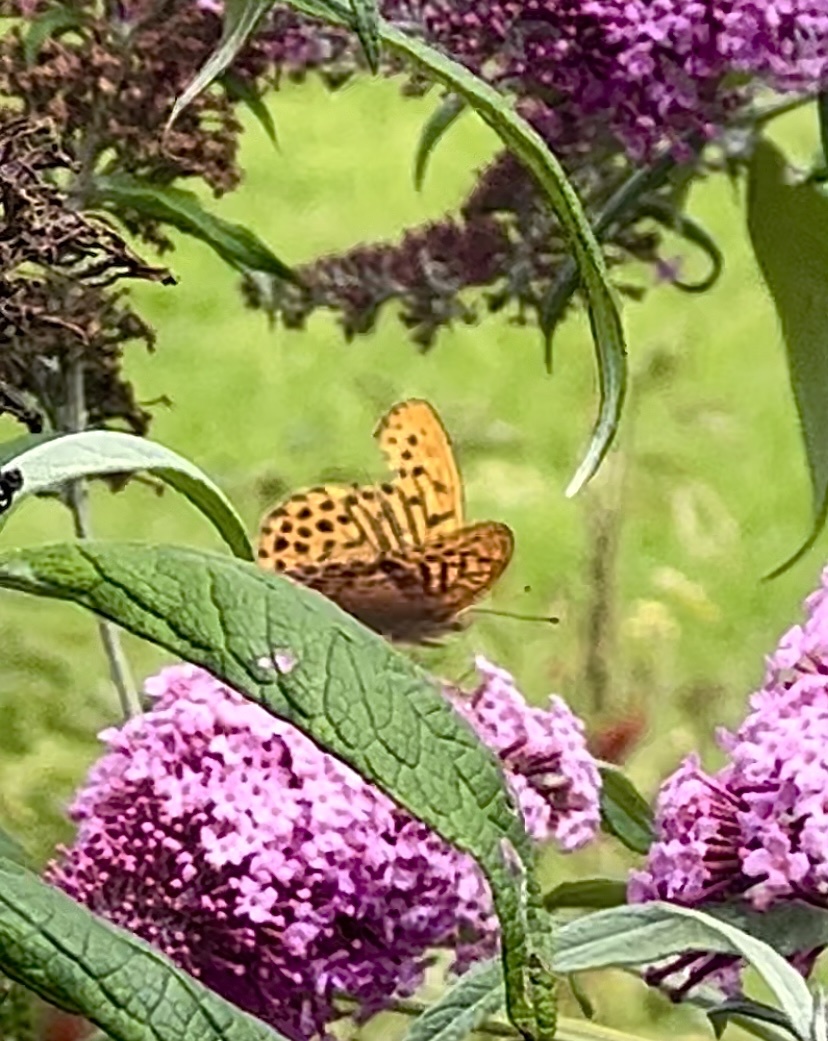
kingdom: Animalia
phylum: Arthropoda
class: Insecta
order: Lepidoptera
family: Nymphalidae
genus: Argynnis
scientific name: Argynnis paphia
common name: Silver-washed fritillary
